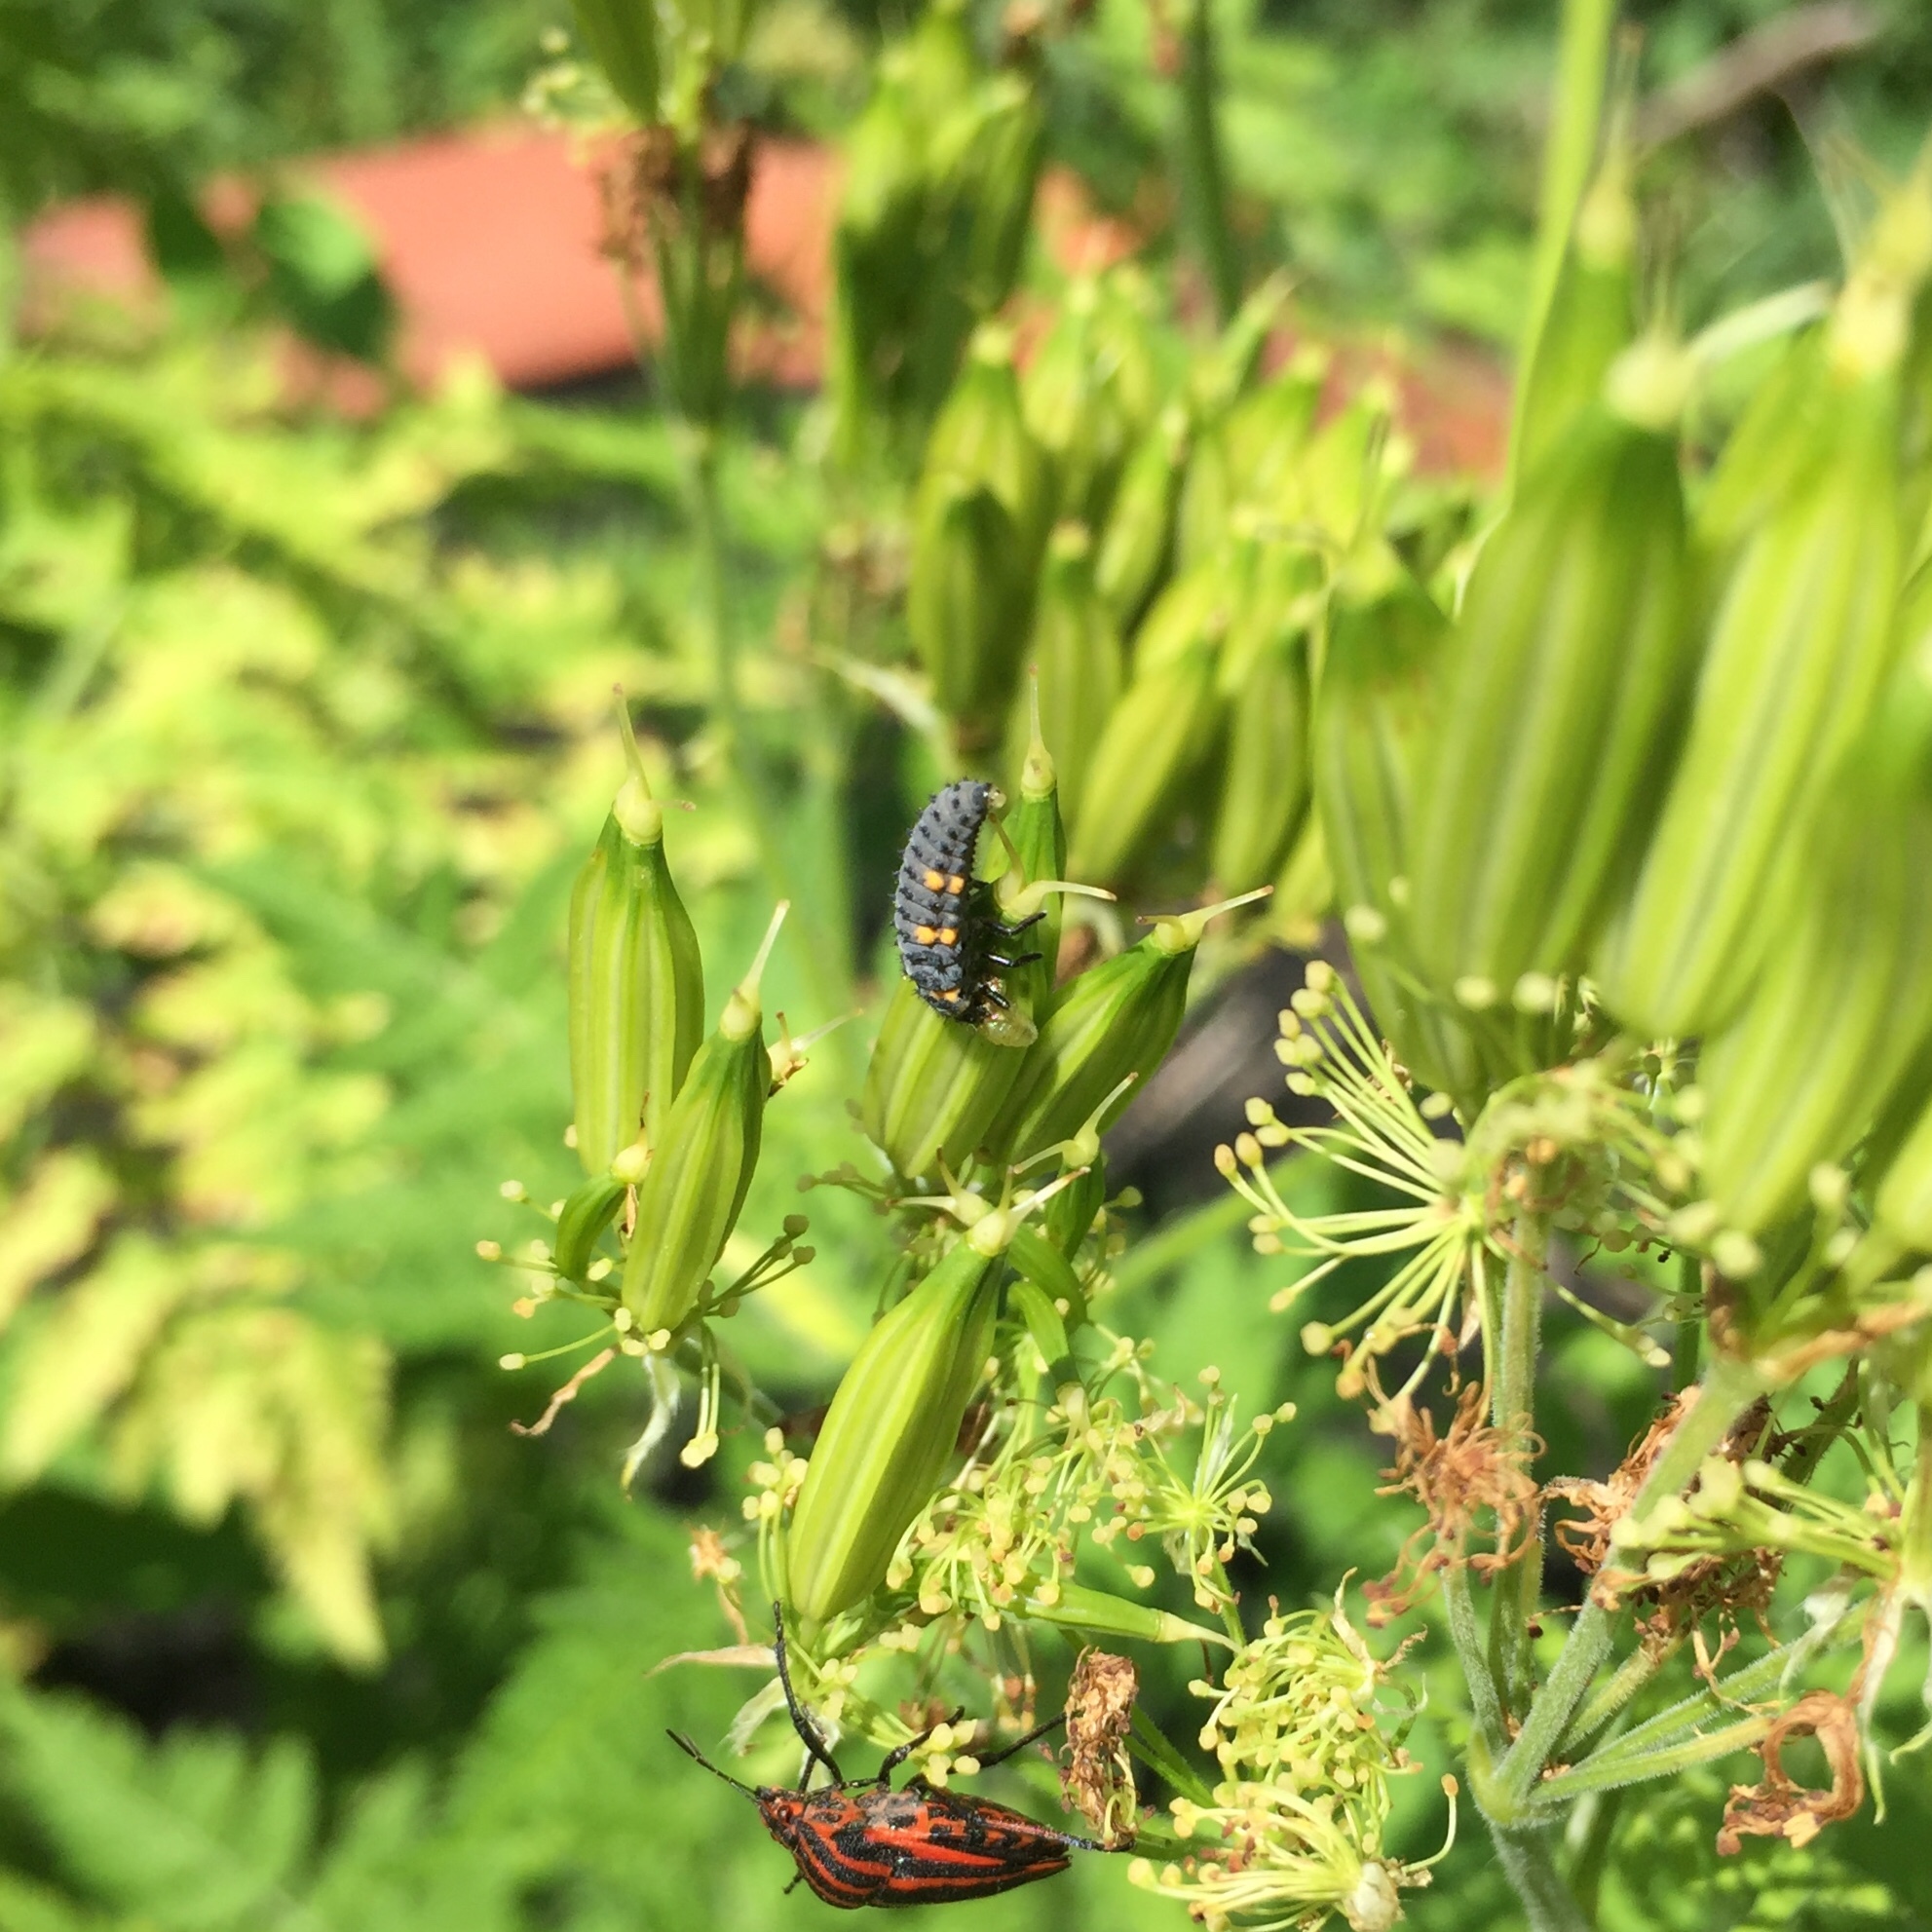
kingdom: Animalia
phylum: Arthropoda
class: Insecta
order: Coleoptera
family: Coccinellidae
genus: Coccinella
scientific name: Coccinella septempunctata
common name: Sevenspotted lady beetle
